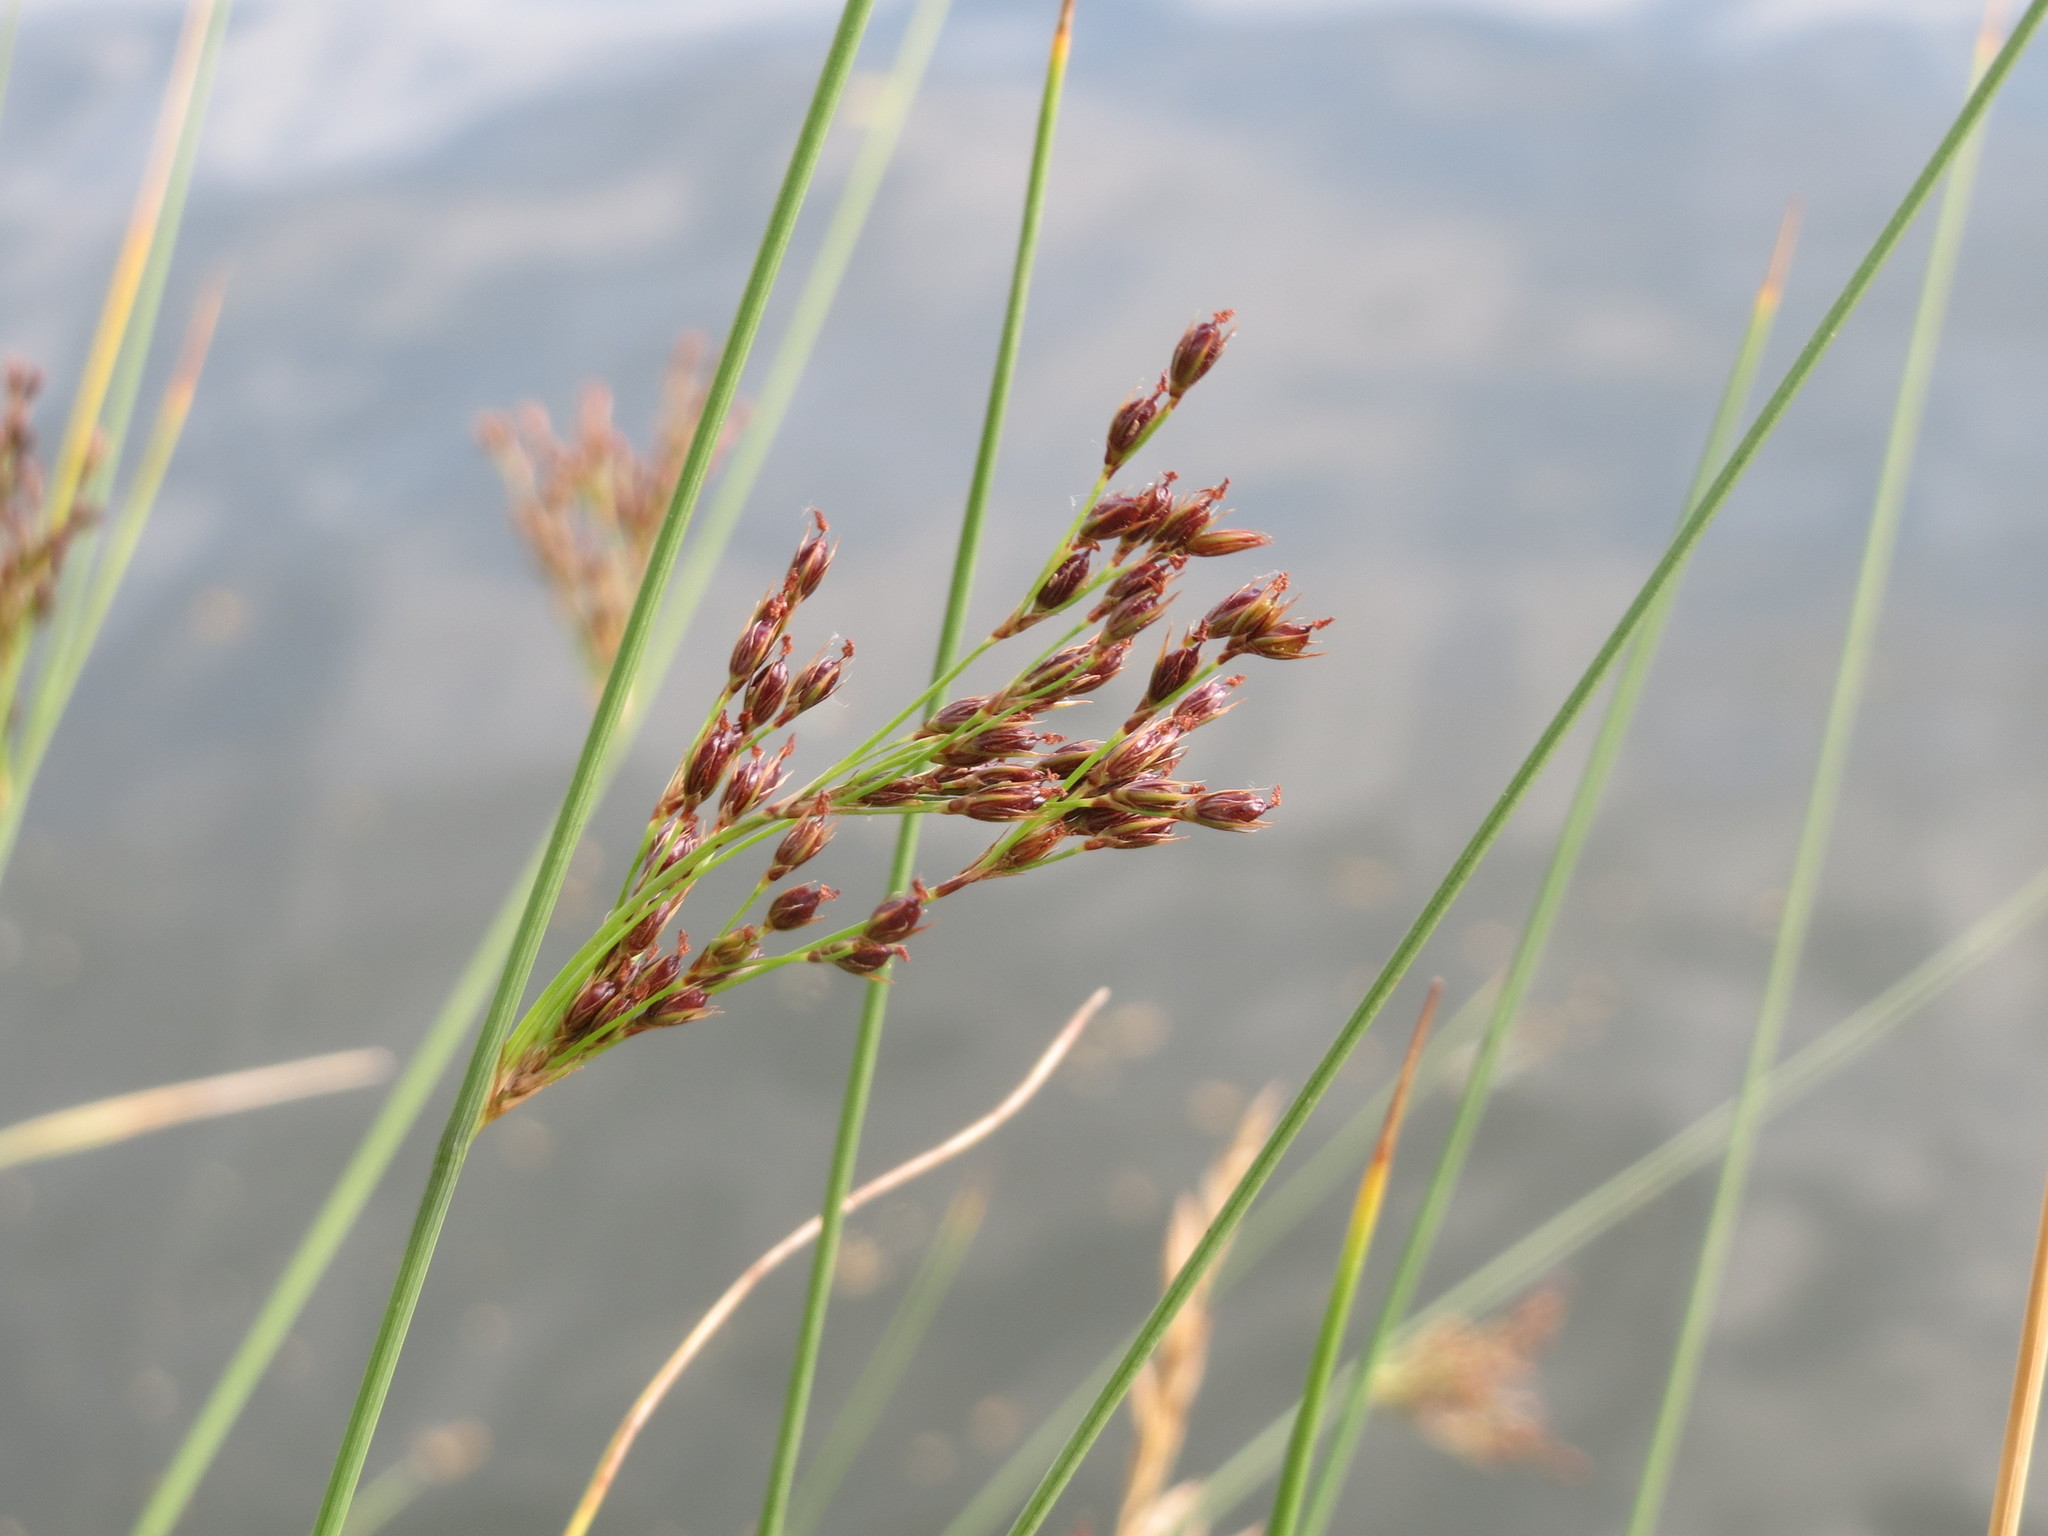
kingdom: Plantae
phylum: Tracheophyta
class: Liliopsida
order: Poales
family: Juncaceae
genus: Juncus
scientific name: Juncus inflexus
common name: Hard rush
